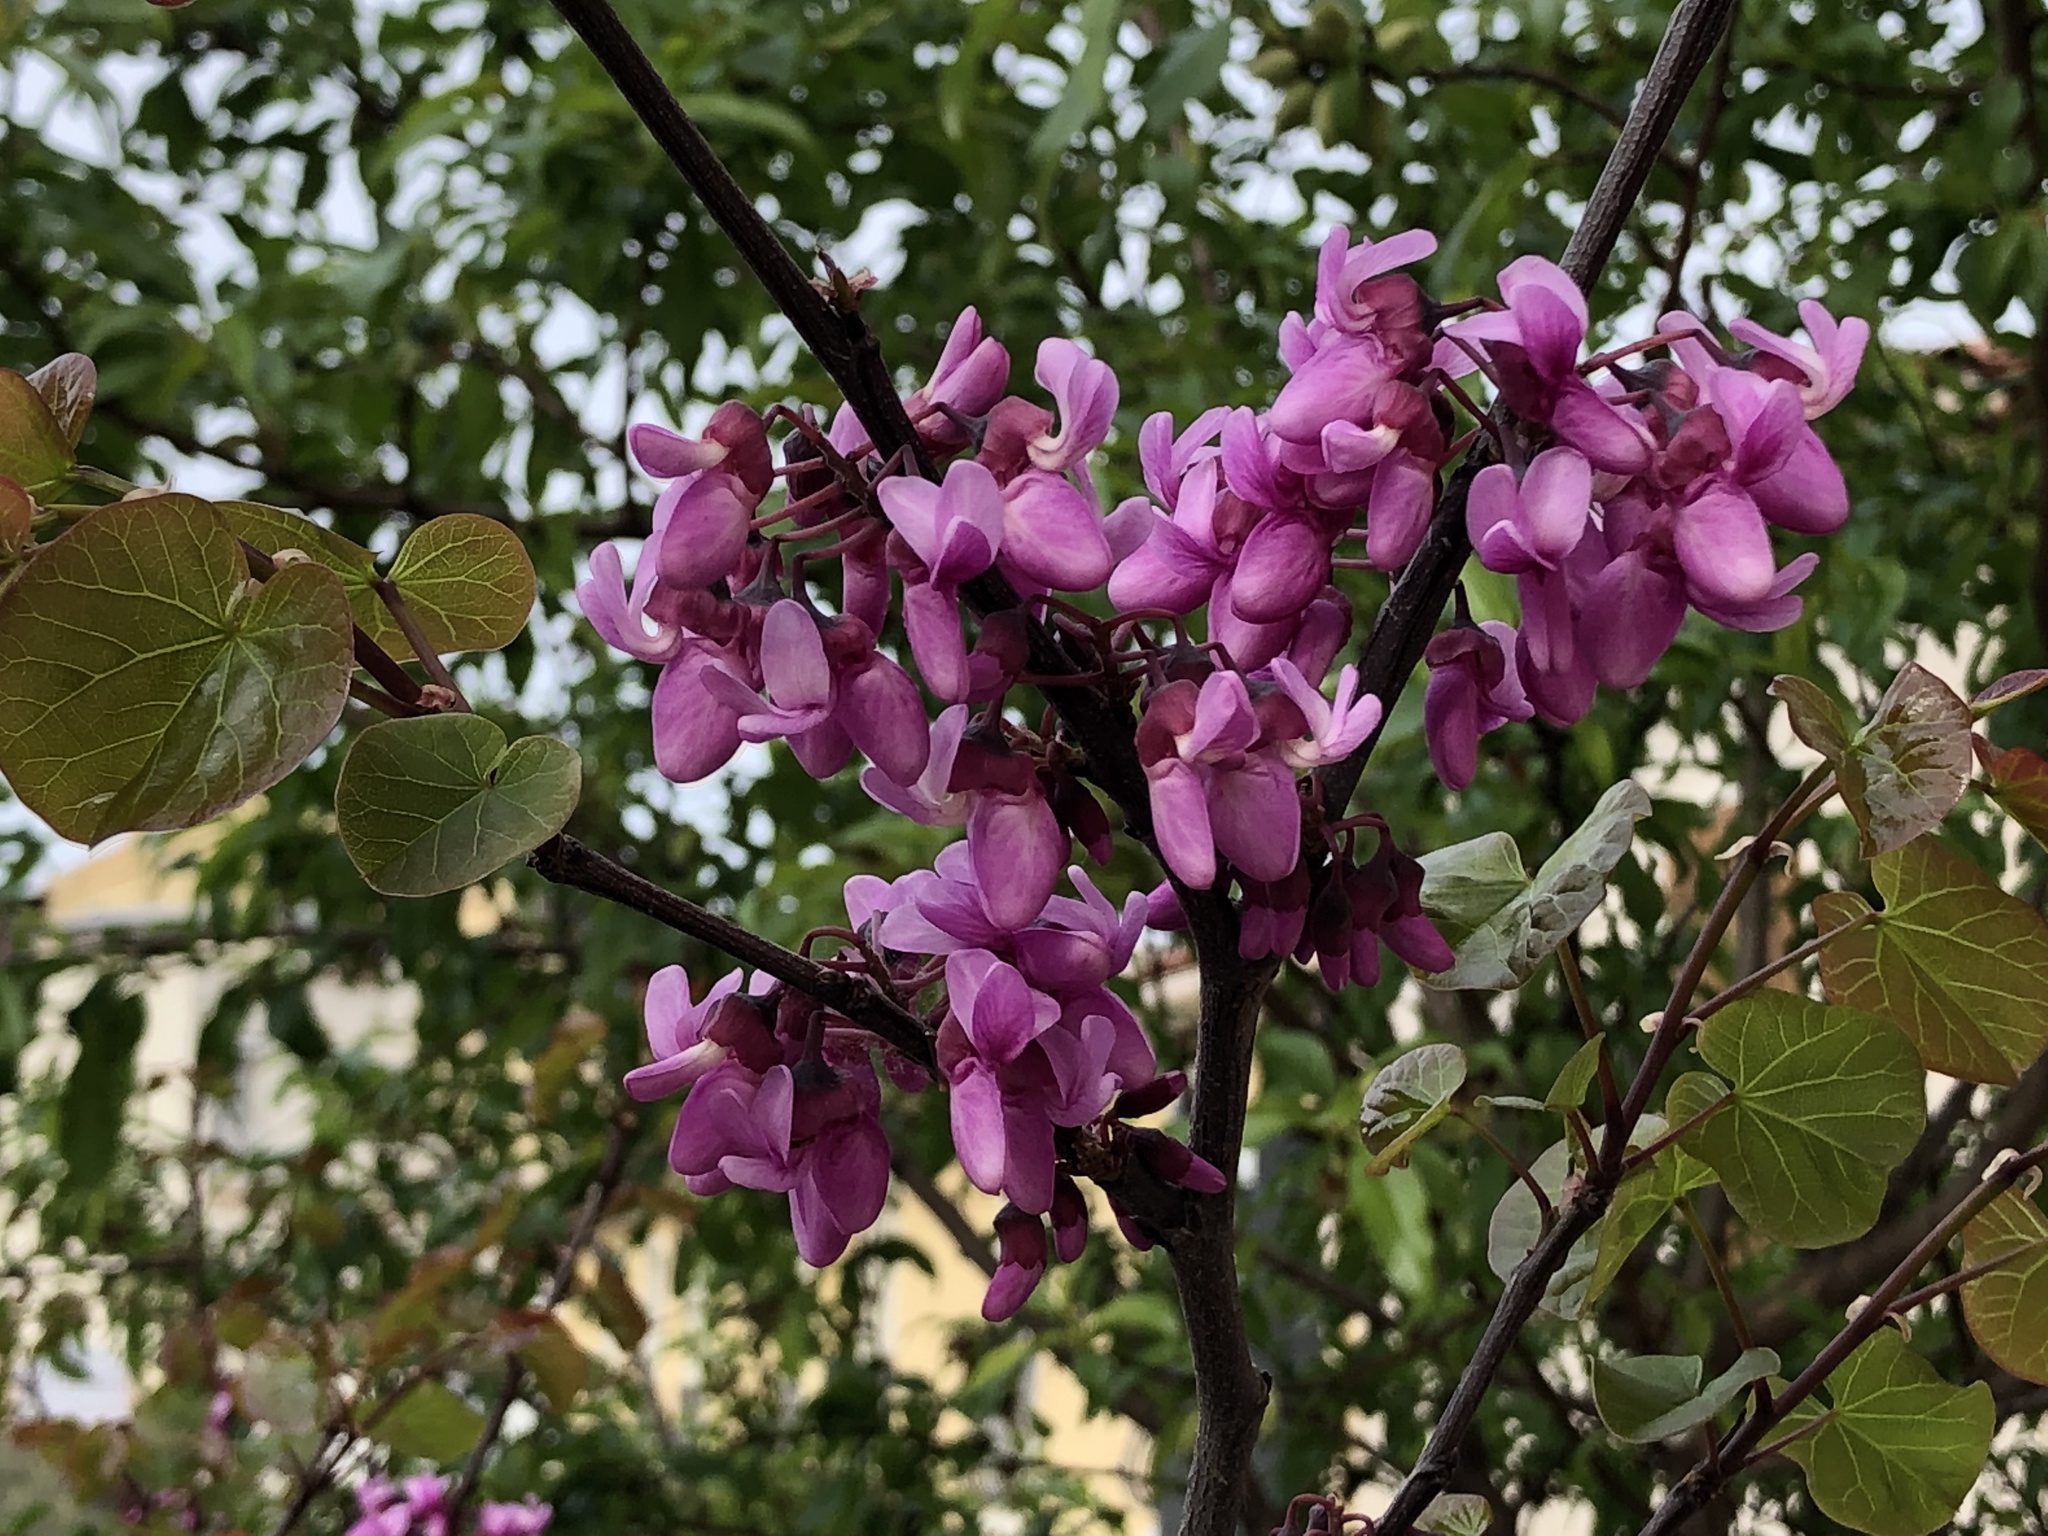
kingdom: Plantae
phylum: Tracheophyta
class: Magnoliopsida
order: Fabales
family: Fabaceae
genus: Cercis
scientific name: Cercis siliquastrum
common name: Judas tree
